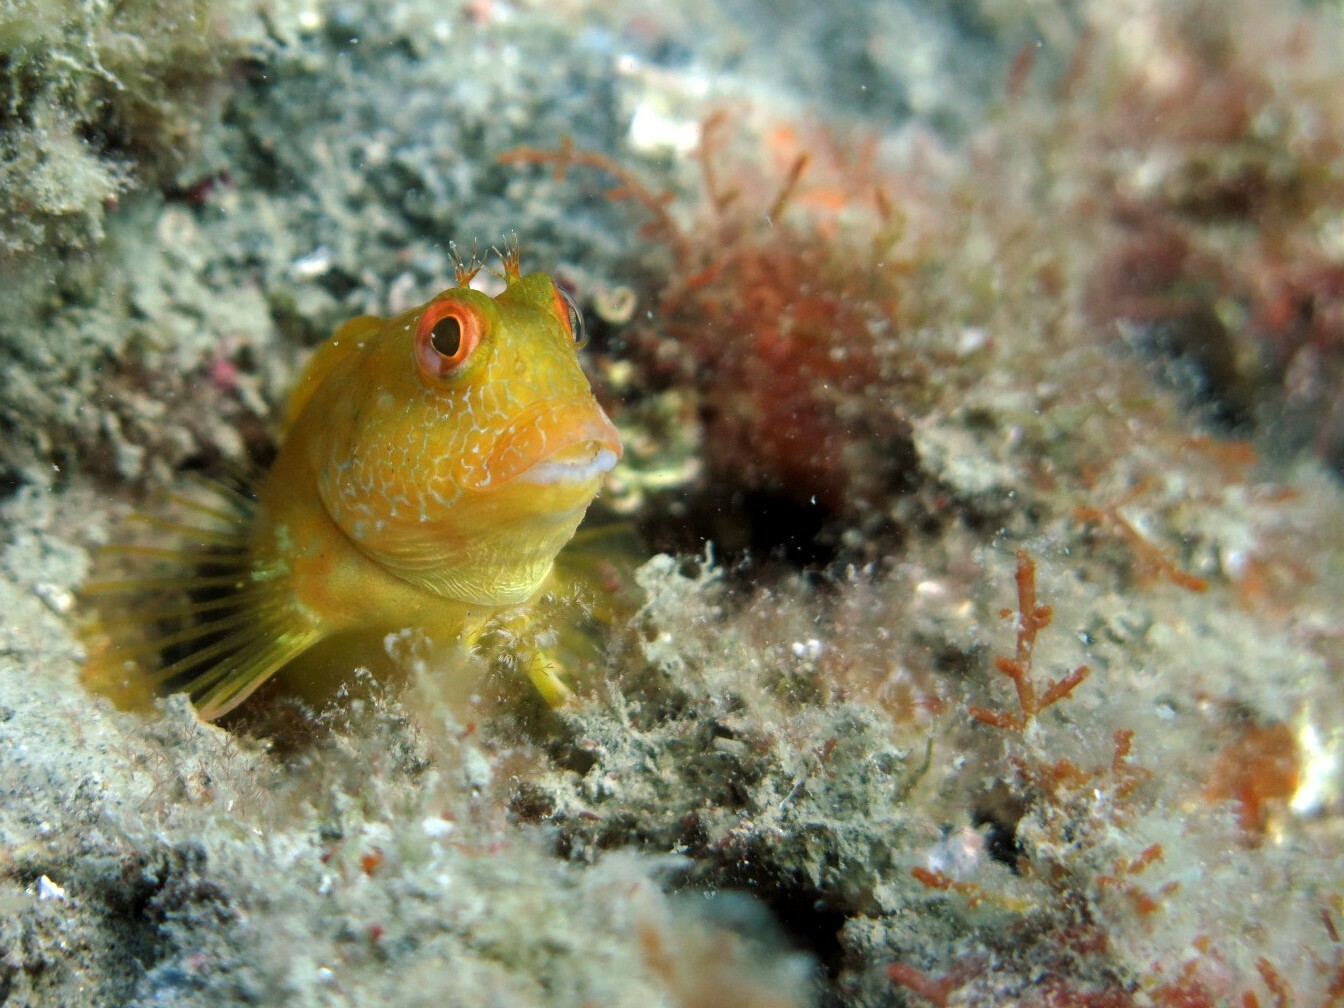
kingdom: Animalia
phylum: Chordata
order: Perciformes
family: Blenniidae
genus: Parablennius
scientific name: Parablennius pilicornis
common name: Ringneck blenny
